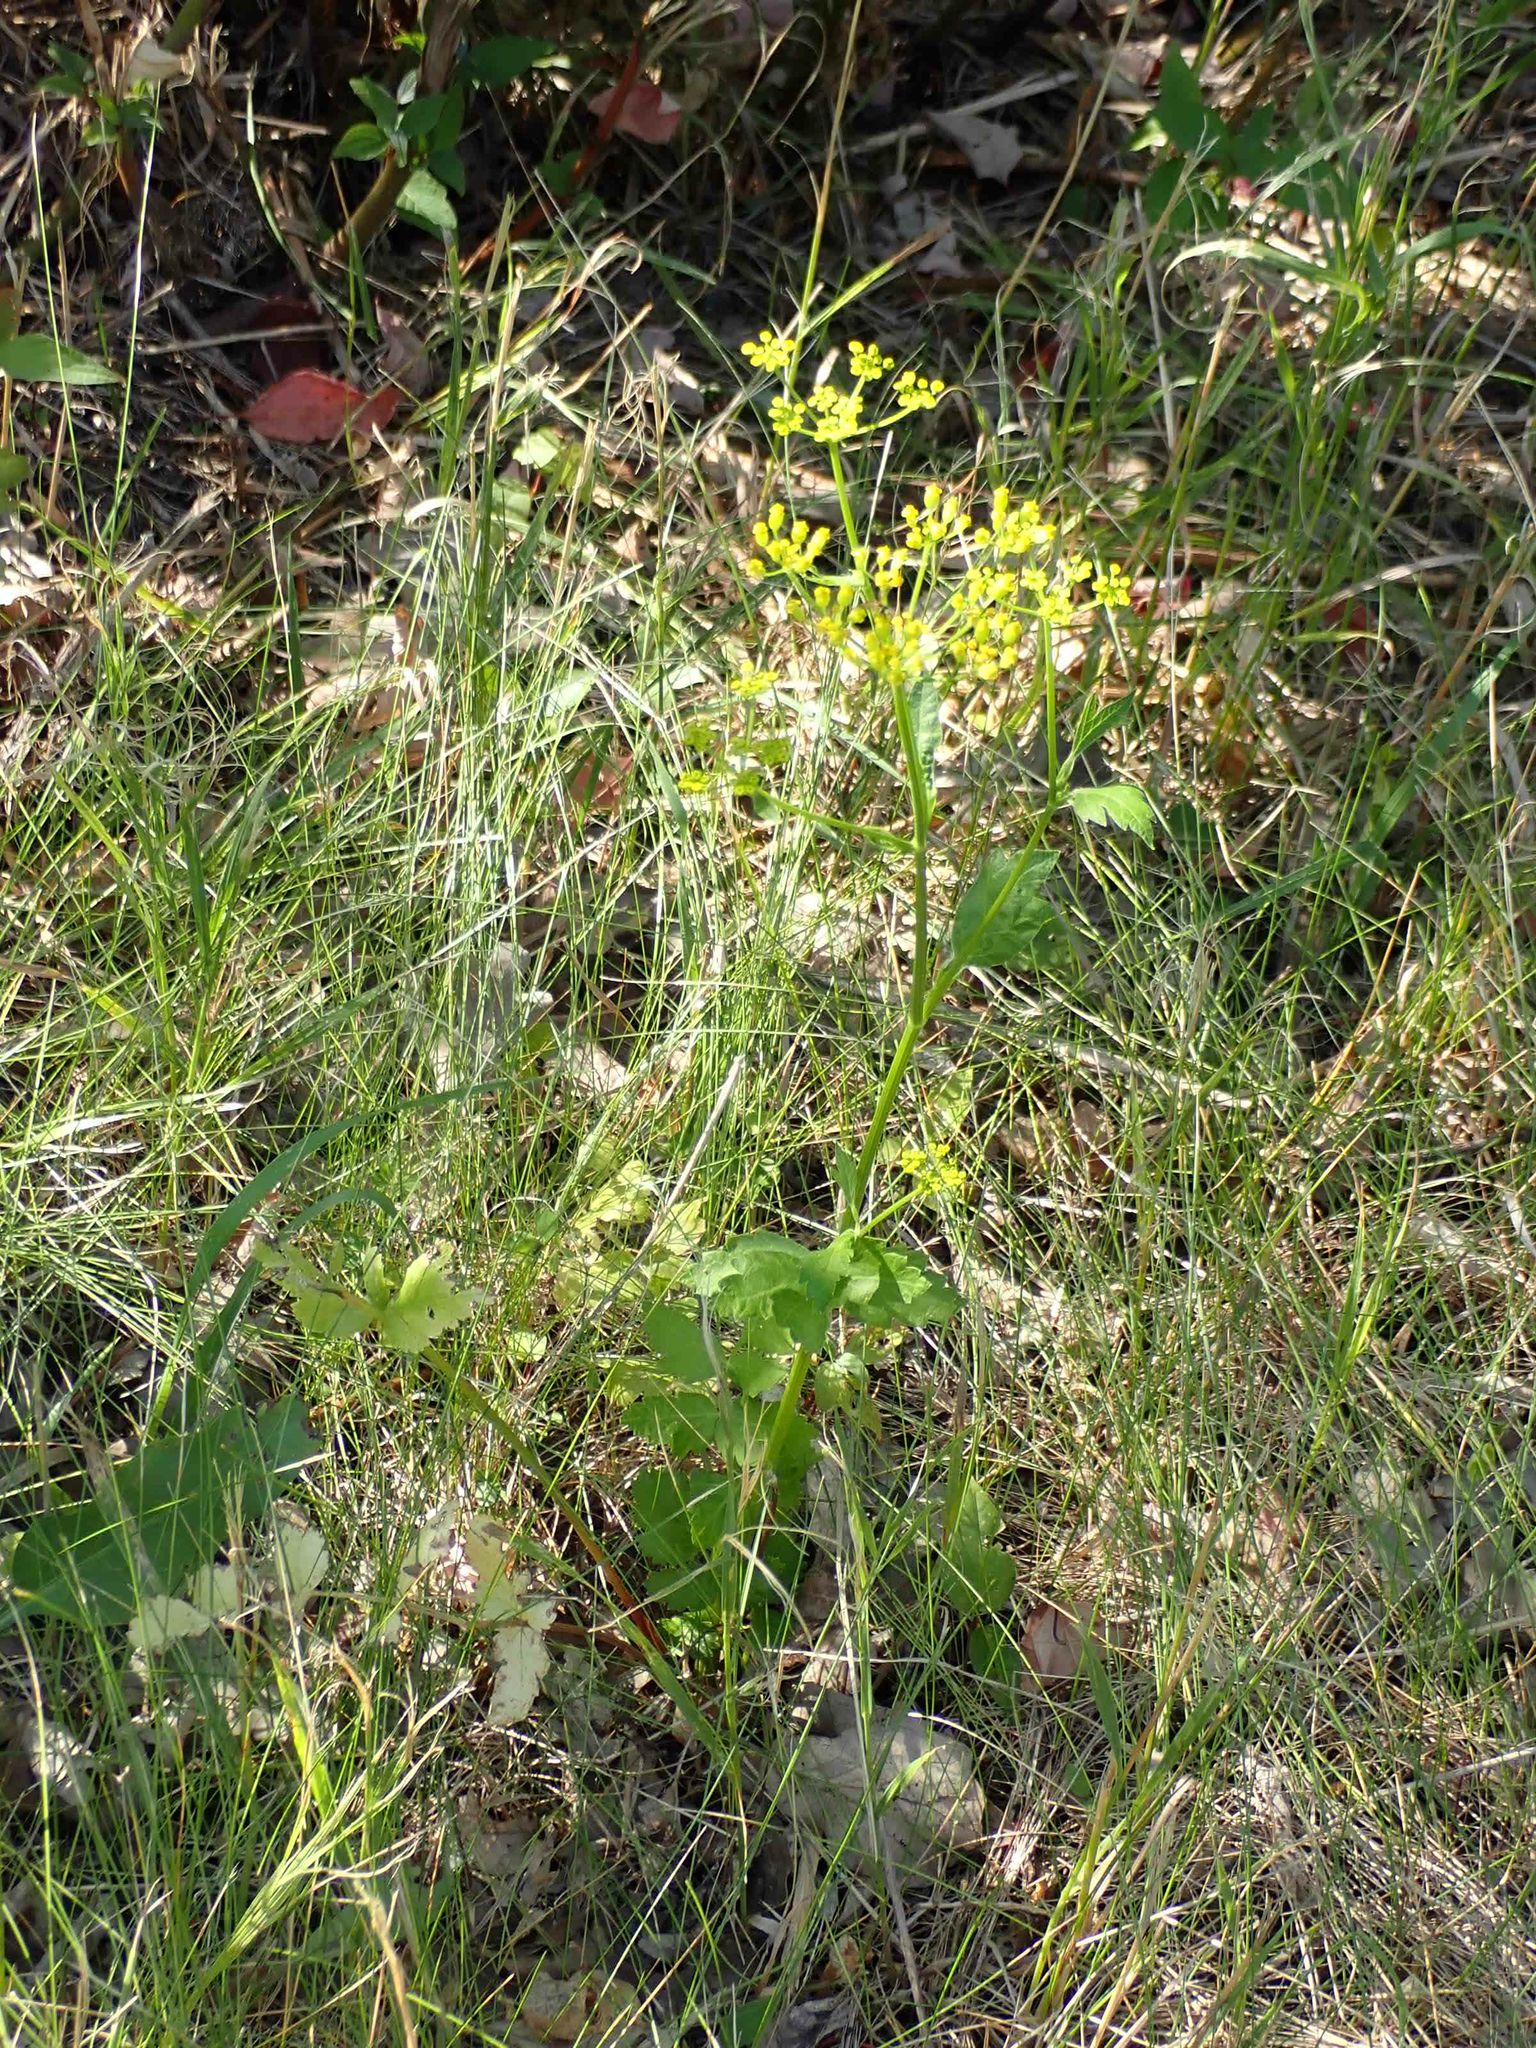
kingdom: Plantae
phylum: Tracheophyta
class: Magnoliopsida
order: Apiales
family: Apiaceae
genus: Pastinaca
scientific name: Pastinaca sativa
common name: Wild parsnip
